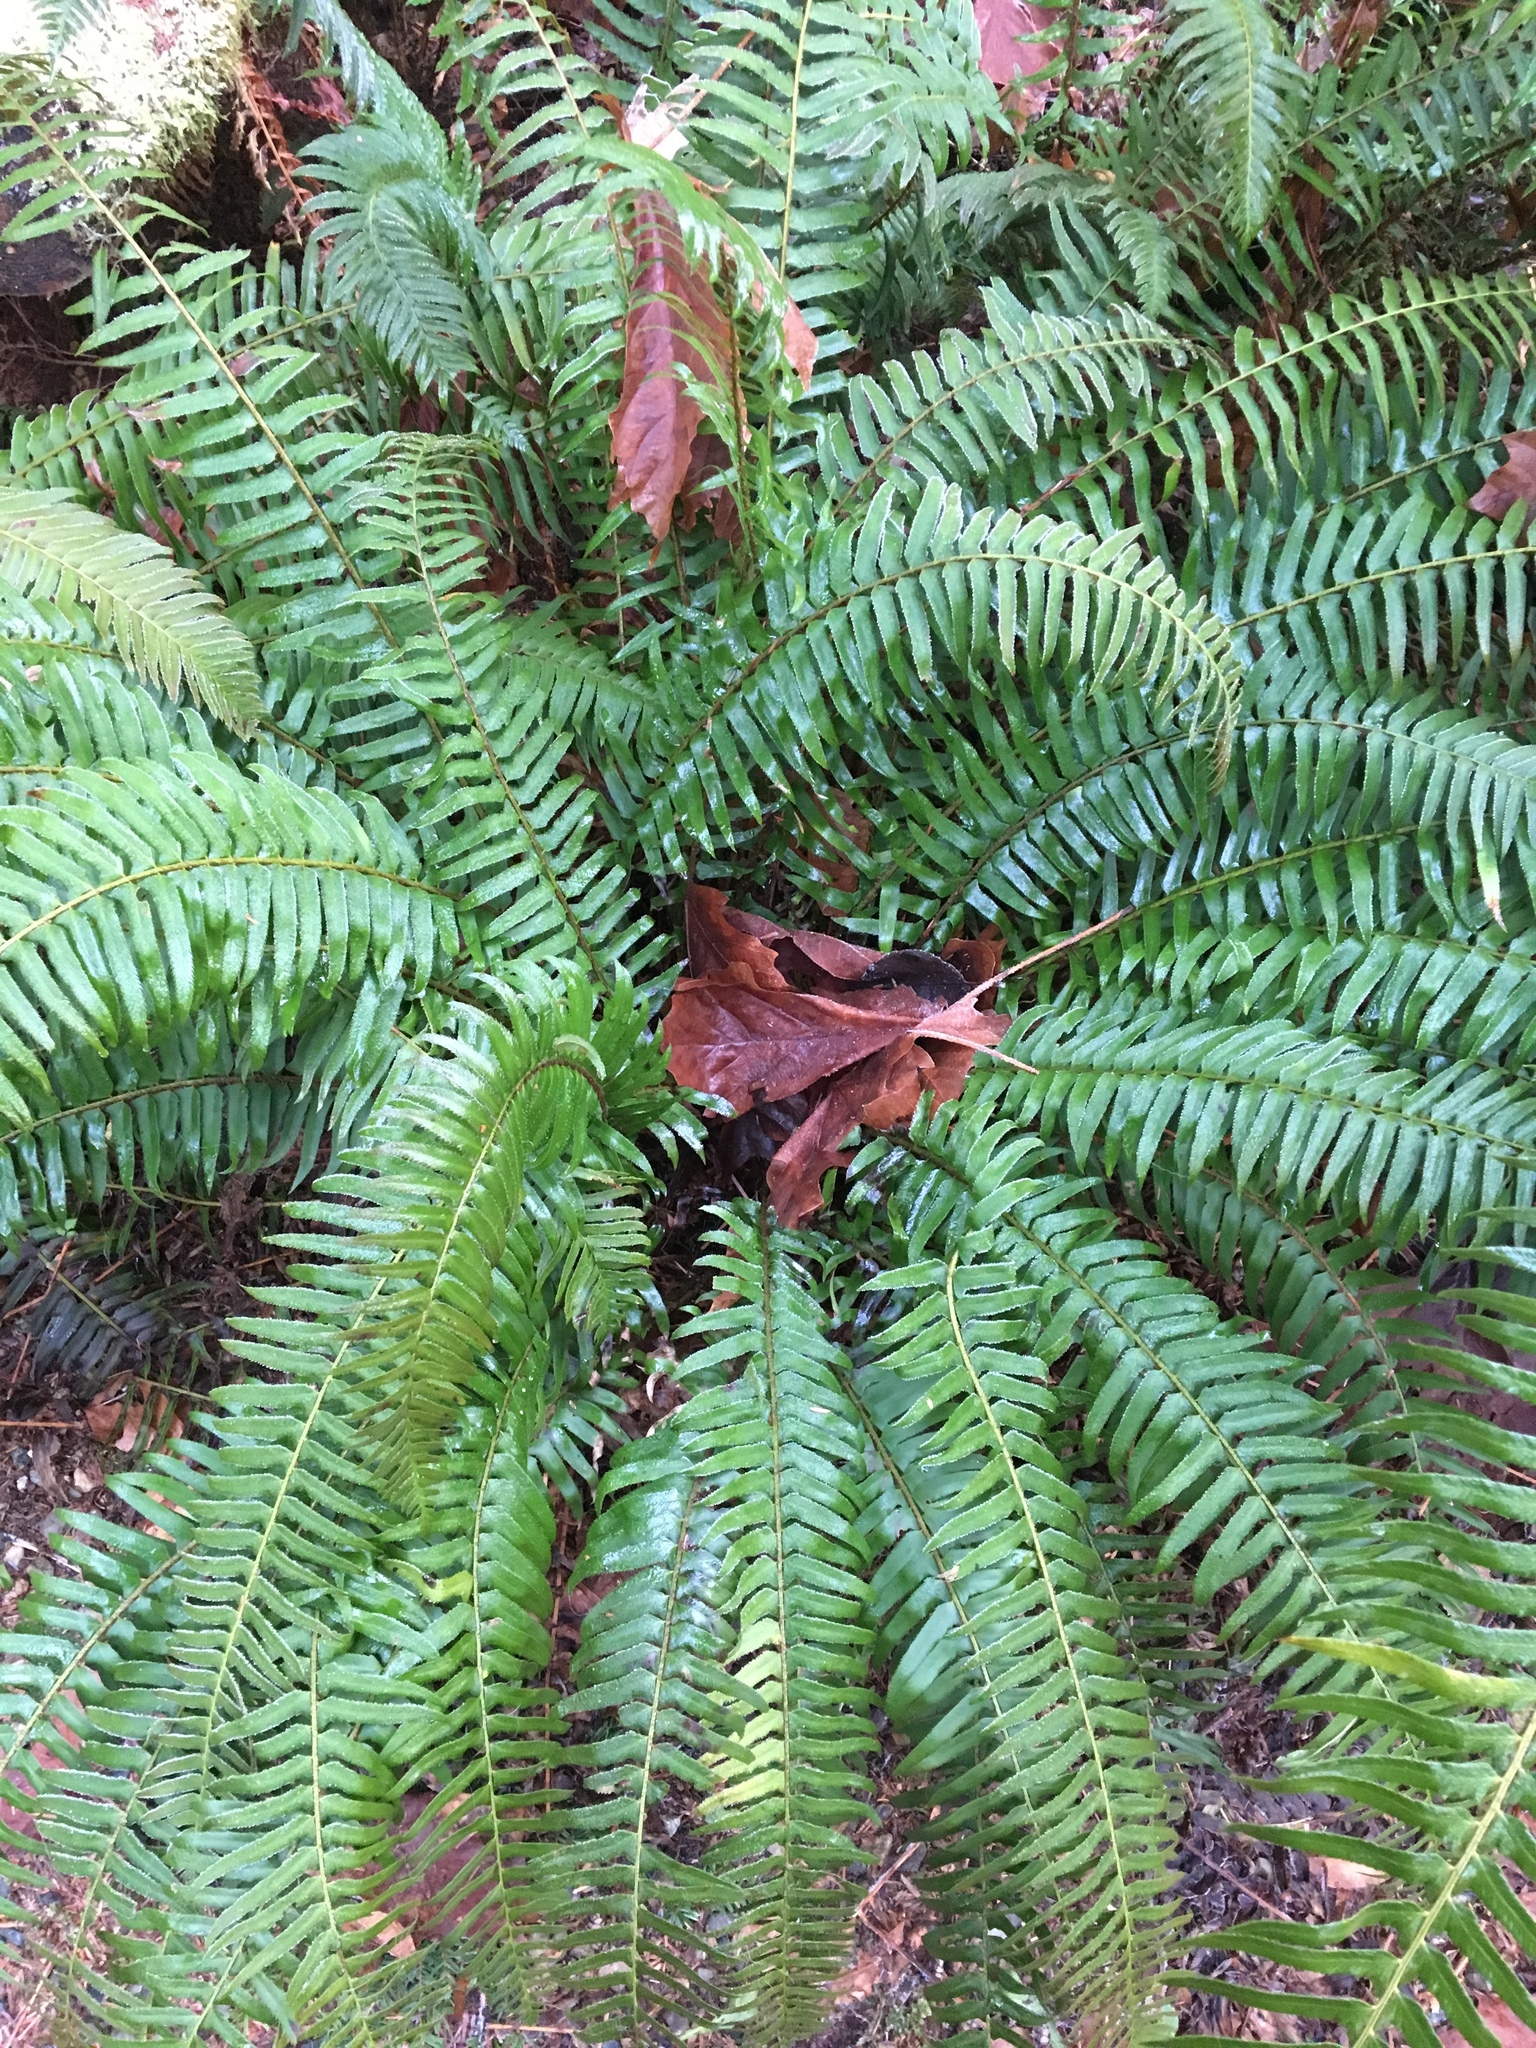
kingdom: Plantae
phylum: Tracheophyta
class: Polypodiopsida
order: Polypodiales
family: Dryopteridaceae
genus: Polystichum
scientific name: Polystichum munitum
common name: Western sword-fern
